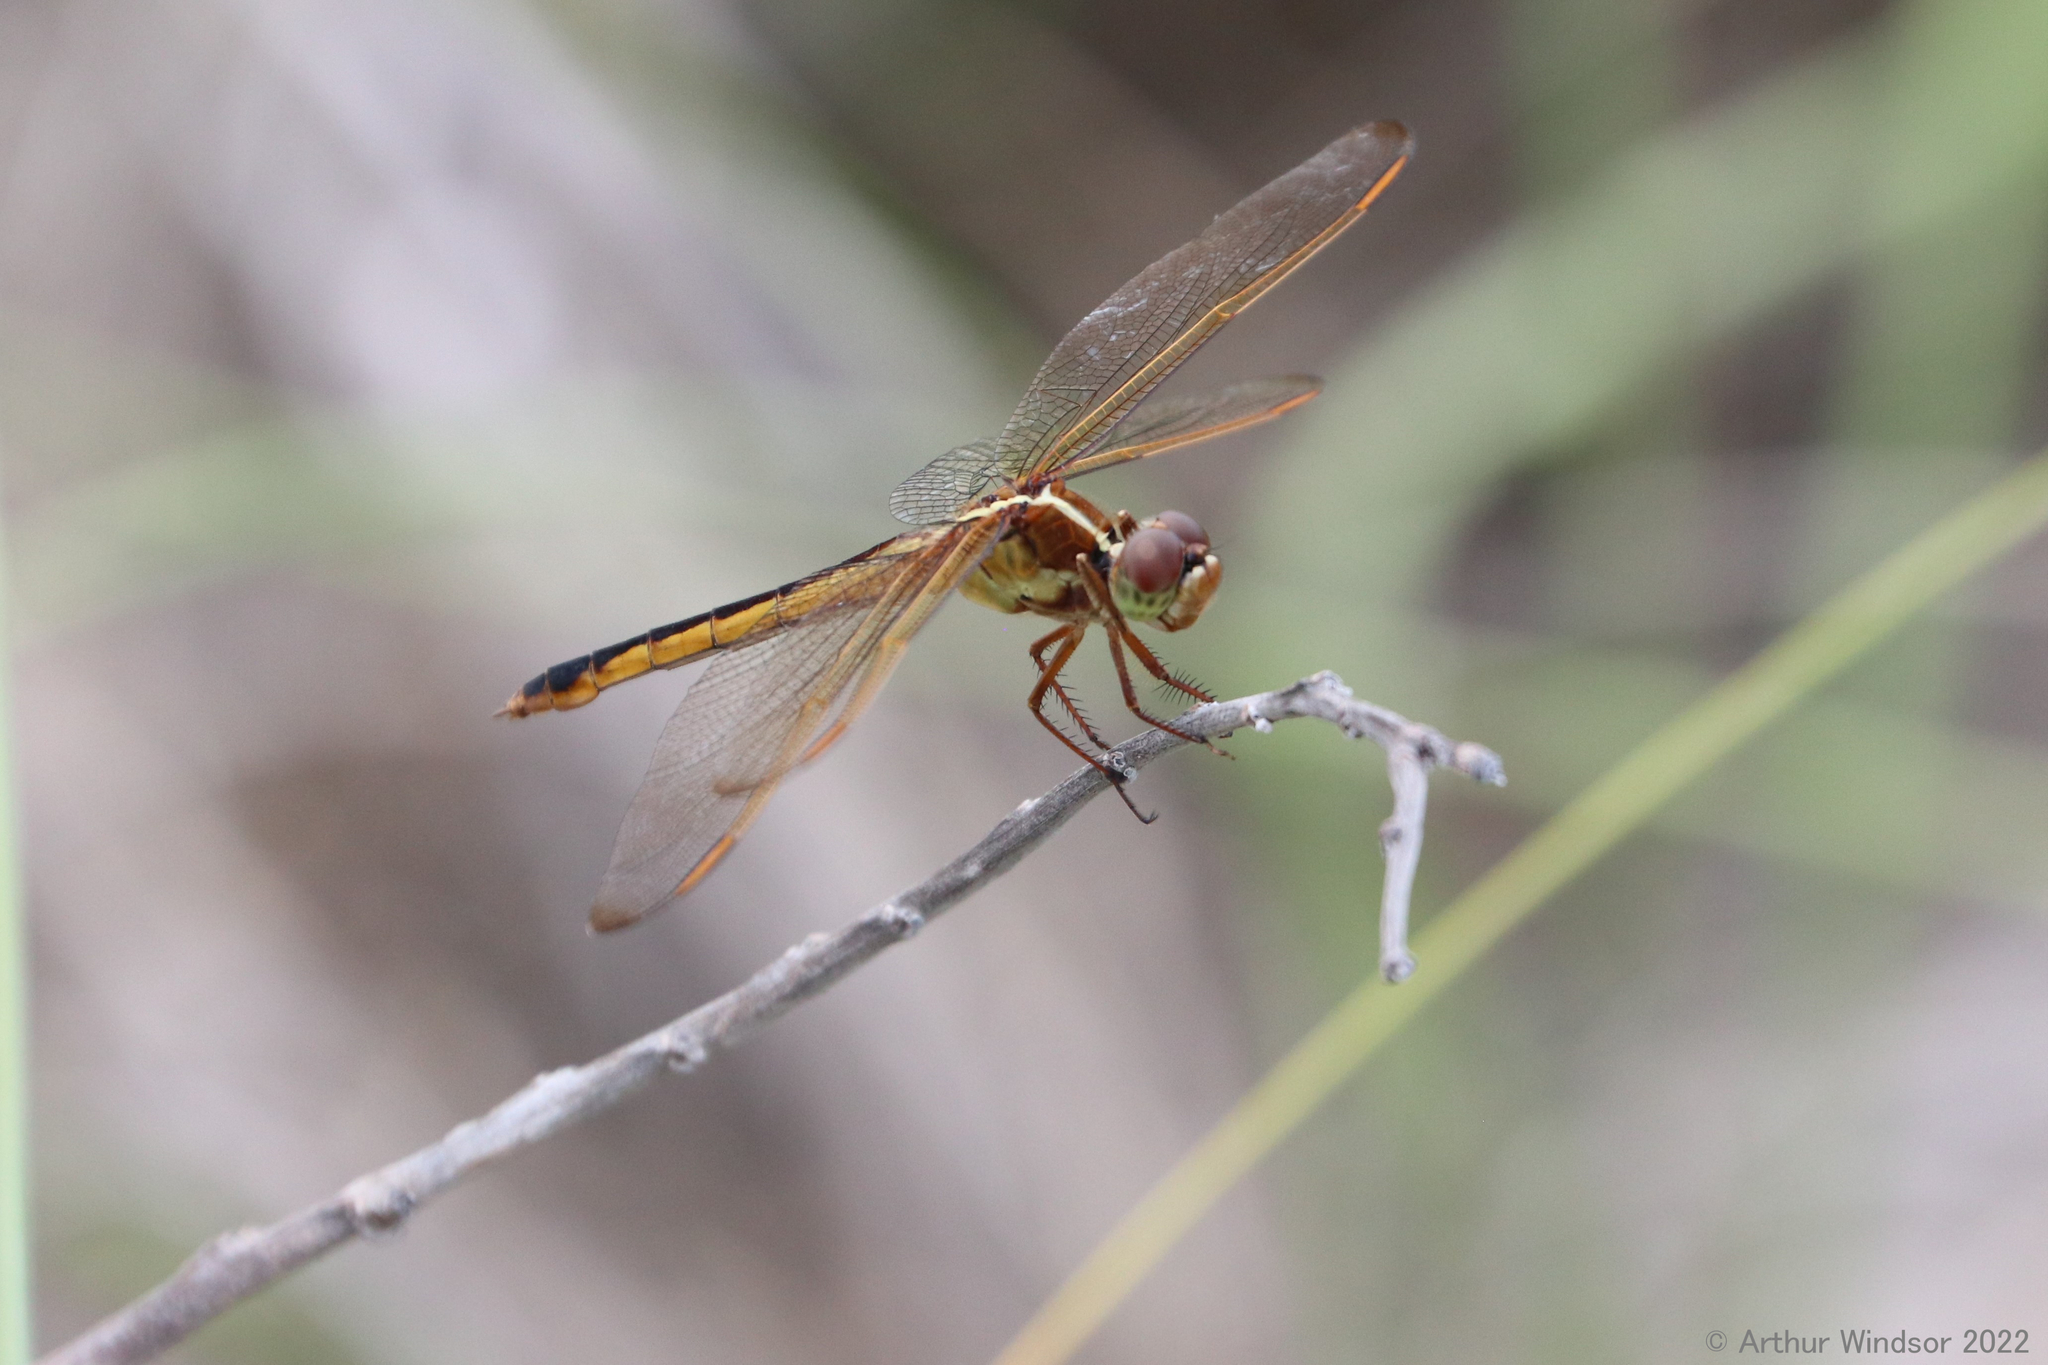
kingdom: Animalia
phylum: Arthropoda
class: Insecta
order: Odonata
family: Libellulidae
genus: Libellula
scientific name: Libellula needhami
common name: Needham's skimmer
